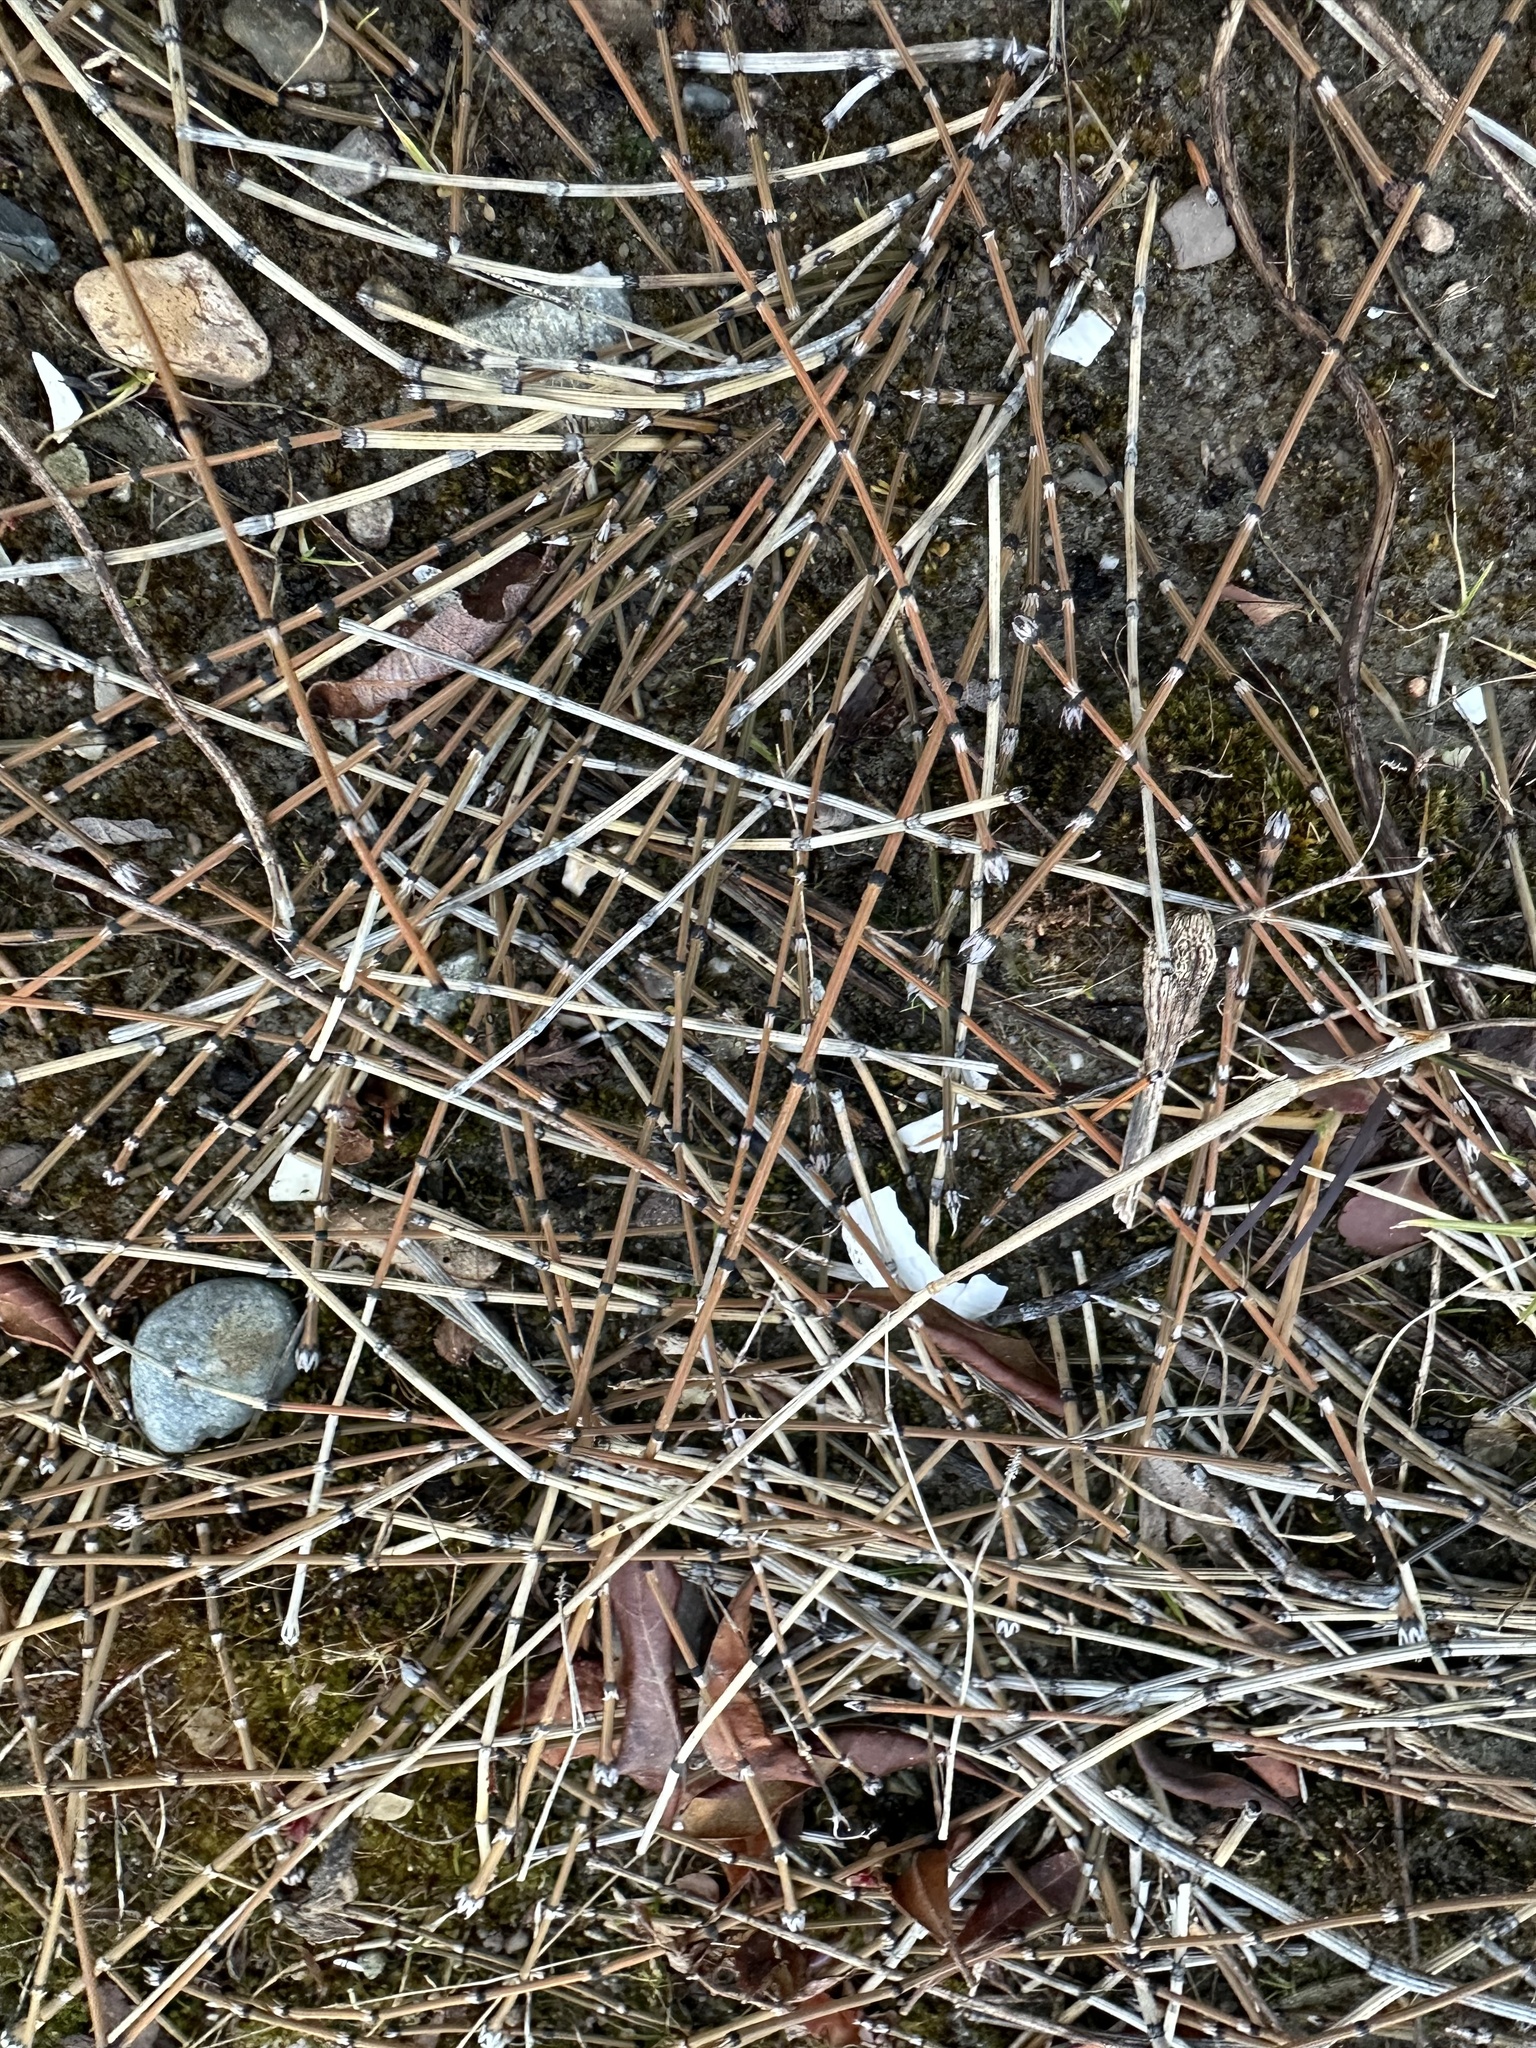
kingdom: Plantae
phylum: Tracheophyta
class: Polypodiopsida
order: Equisetales
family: Equisetaceae
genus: Equisetum
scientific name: Equisetum variegatum
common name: Variegated horsetail
